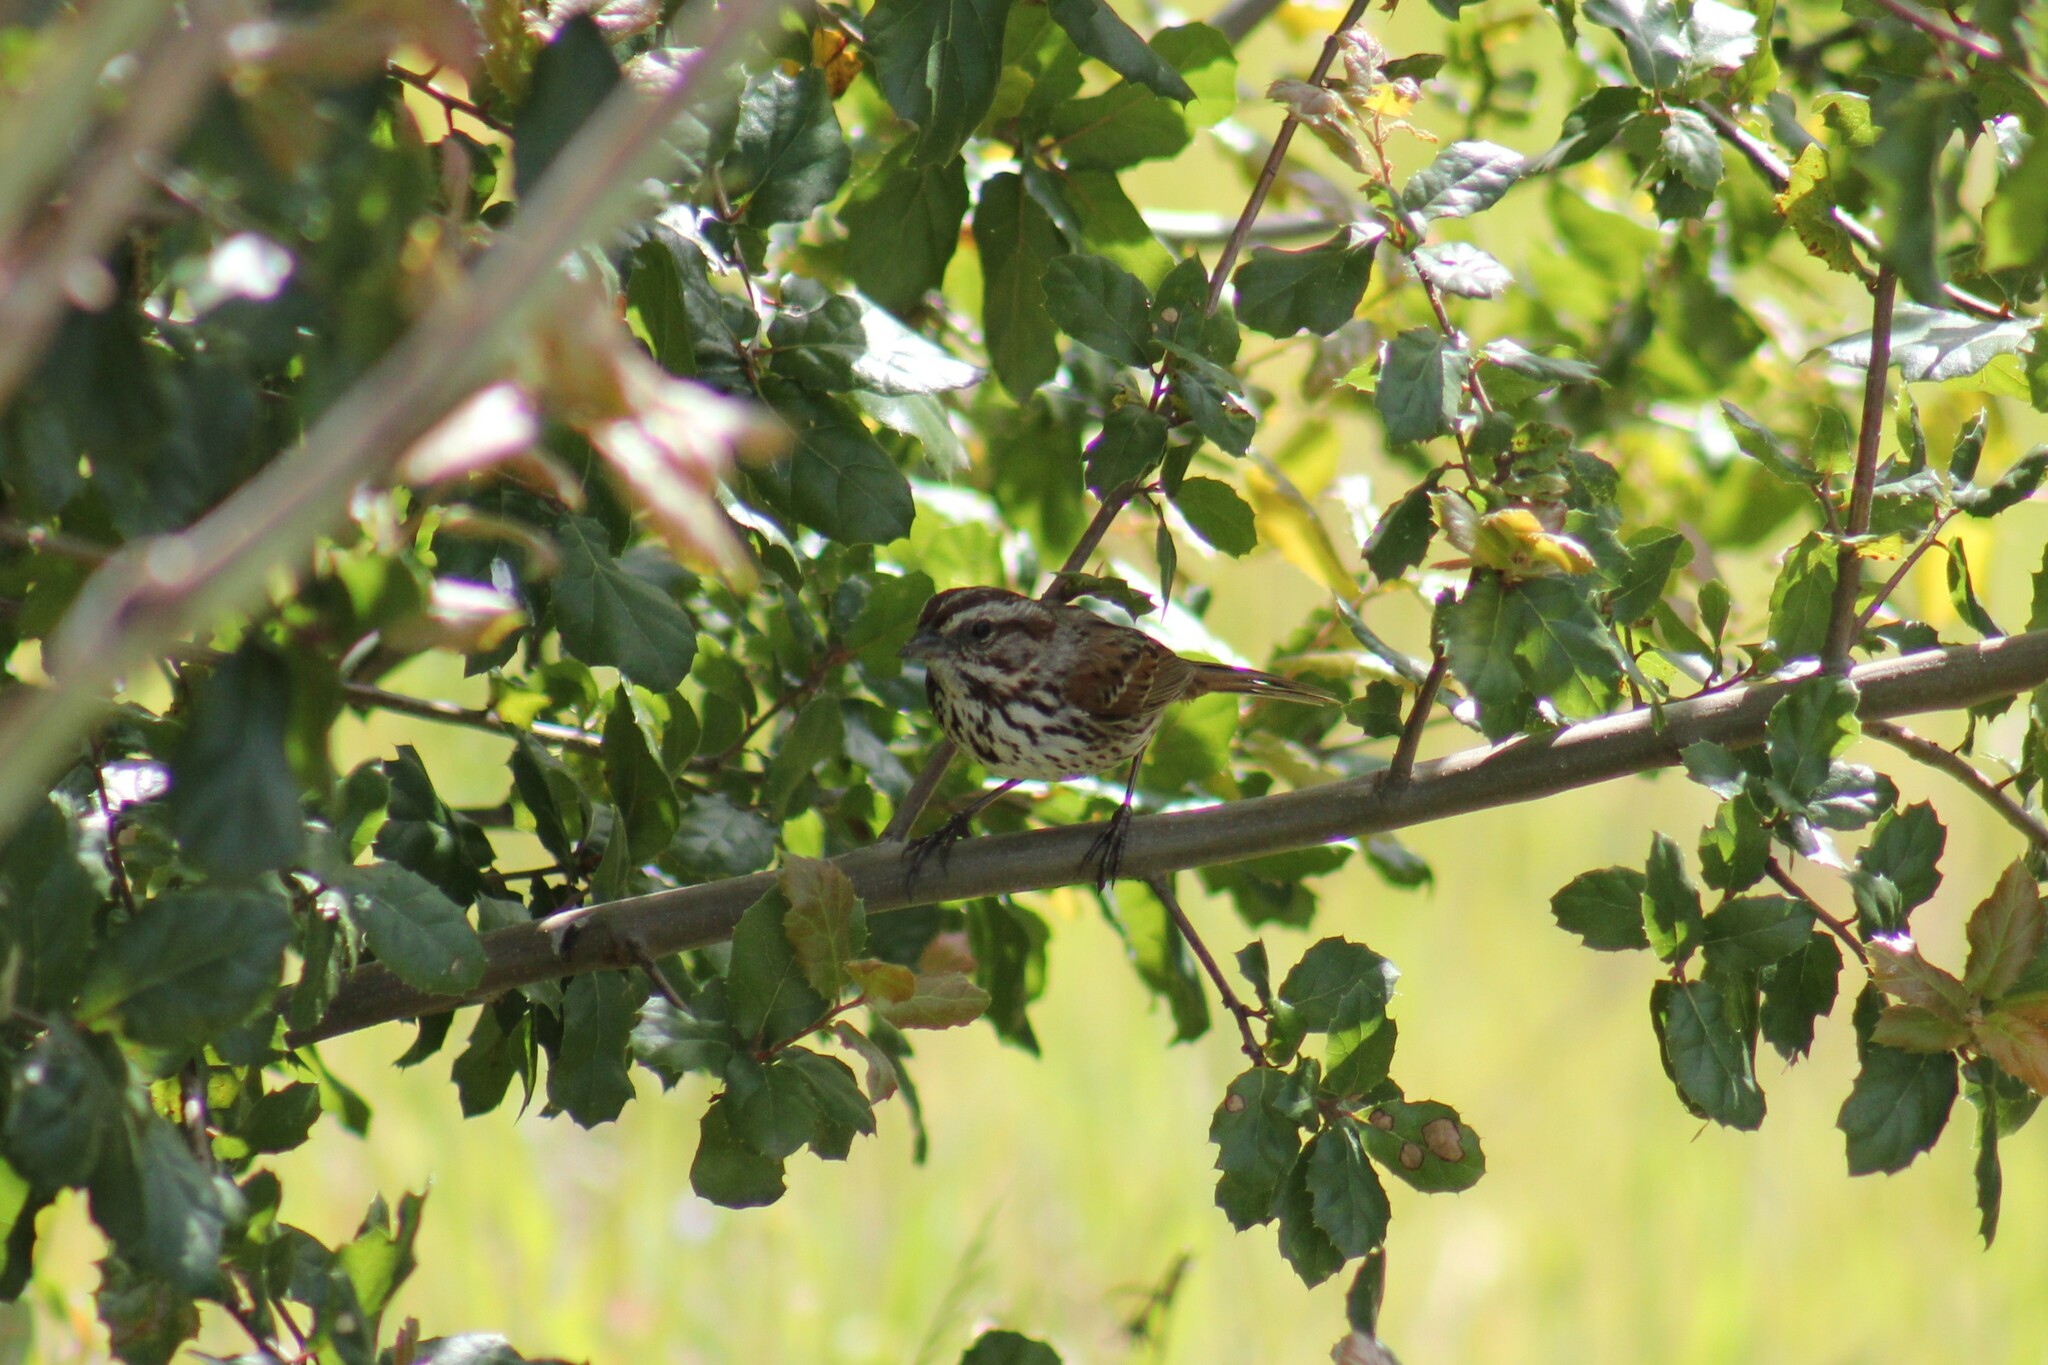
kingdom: Animalia
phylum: Chordata
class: Aves
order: Passeriformes
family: Passerellidae
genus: Melospiza
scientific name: Melospiza melodia
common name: Song sparrow
